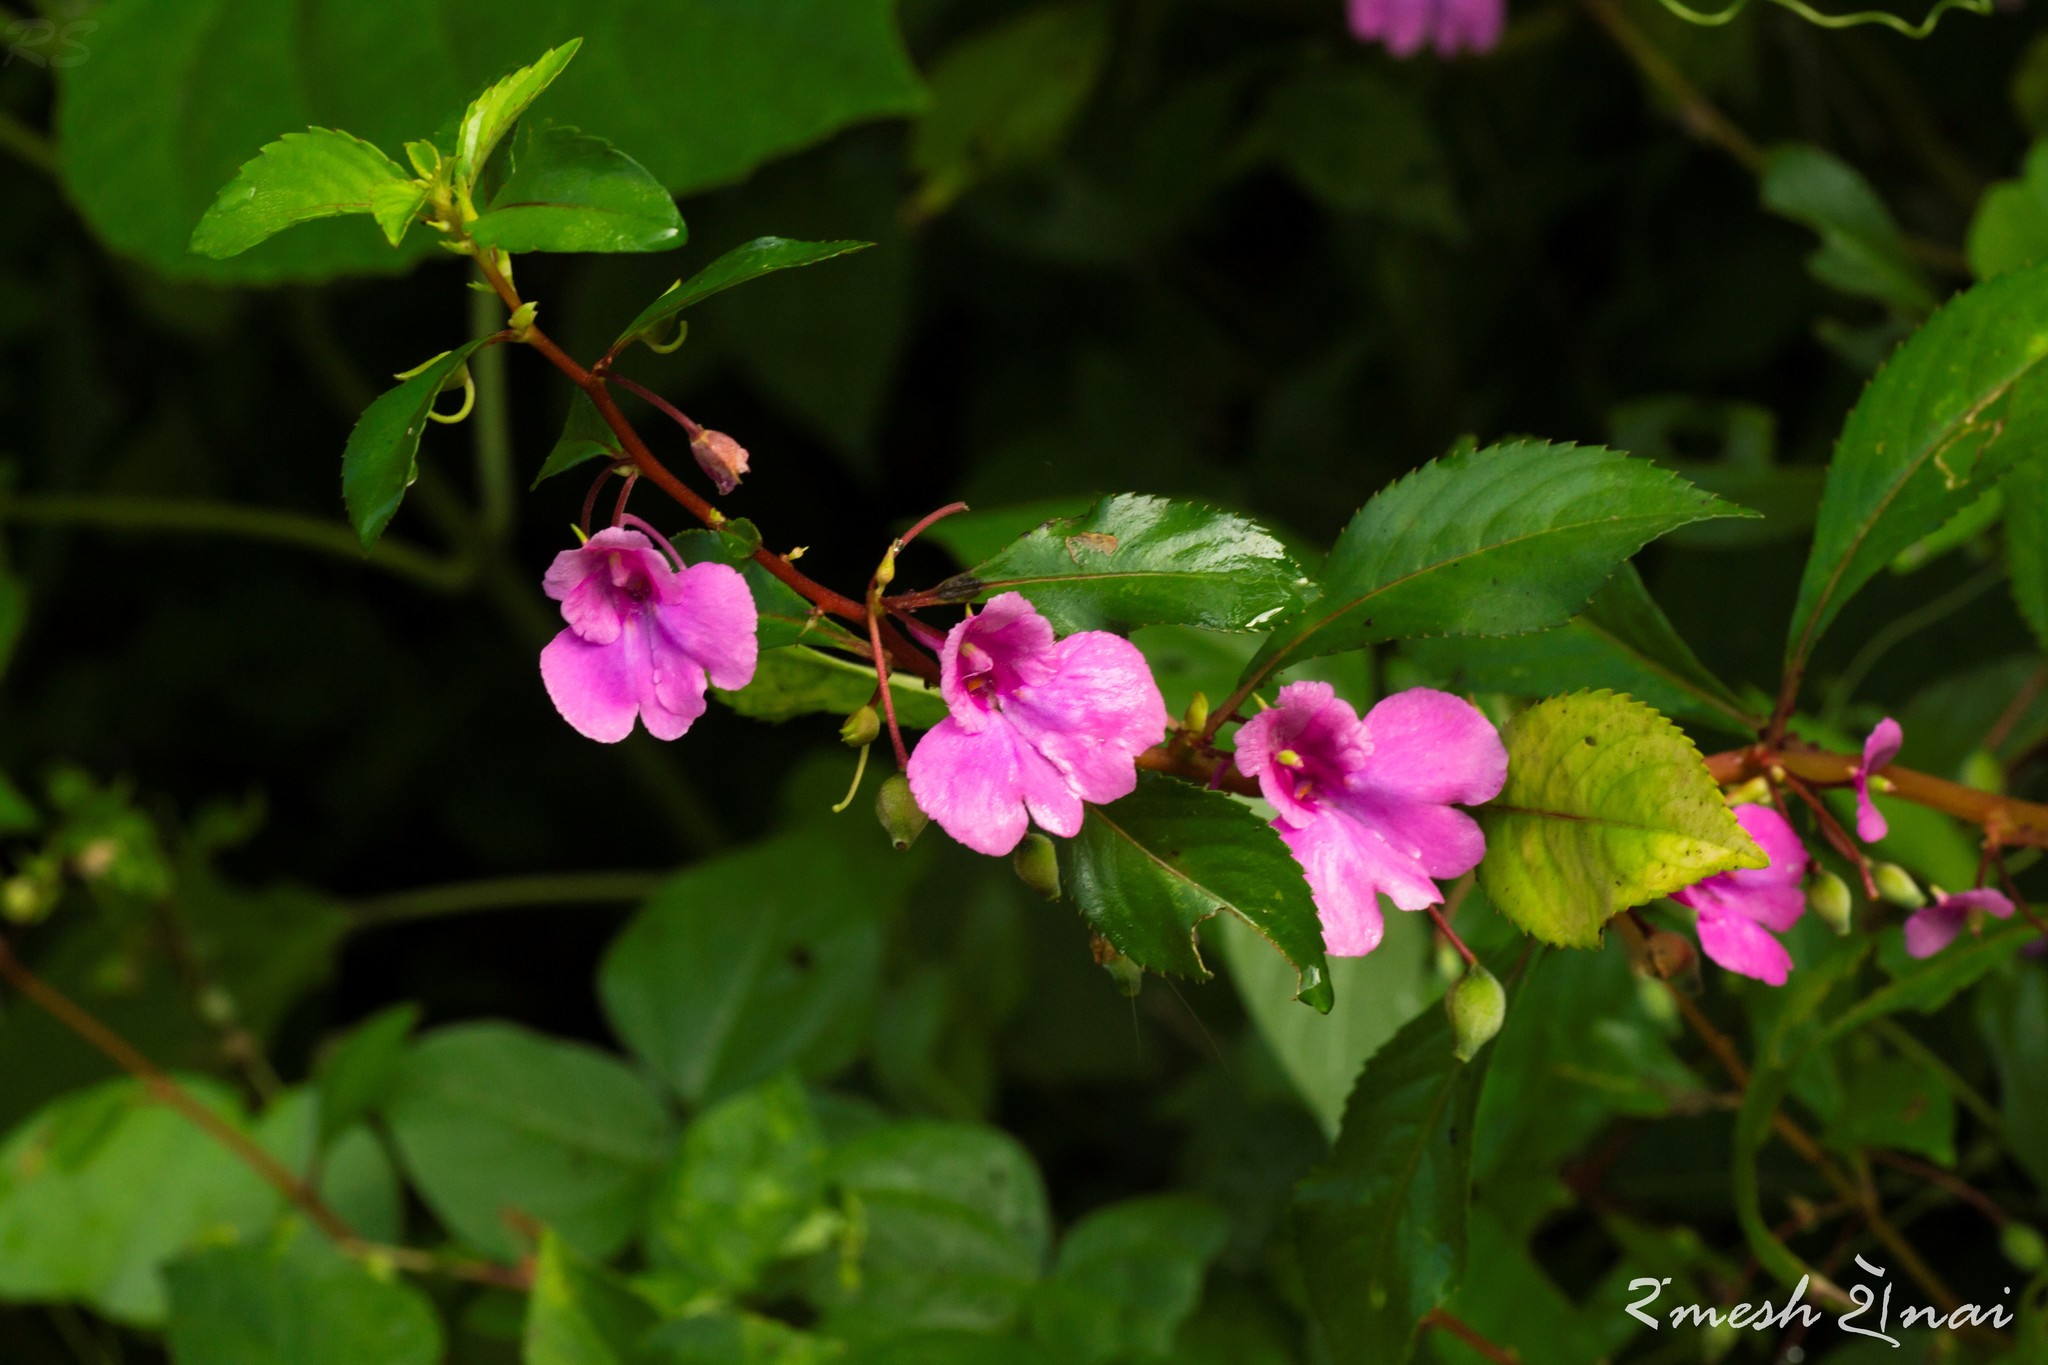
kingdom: Plantae
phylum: Tracheophyta
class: Magnoliopsida
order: Ericales
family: Balsaminaceae
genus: Impatiens
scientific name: Impatiens balsamina
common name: Balsam
